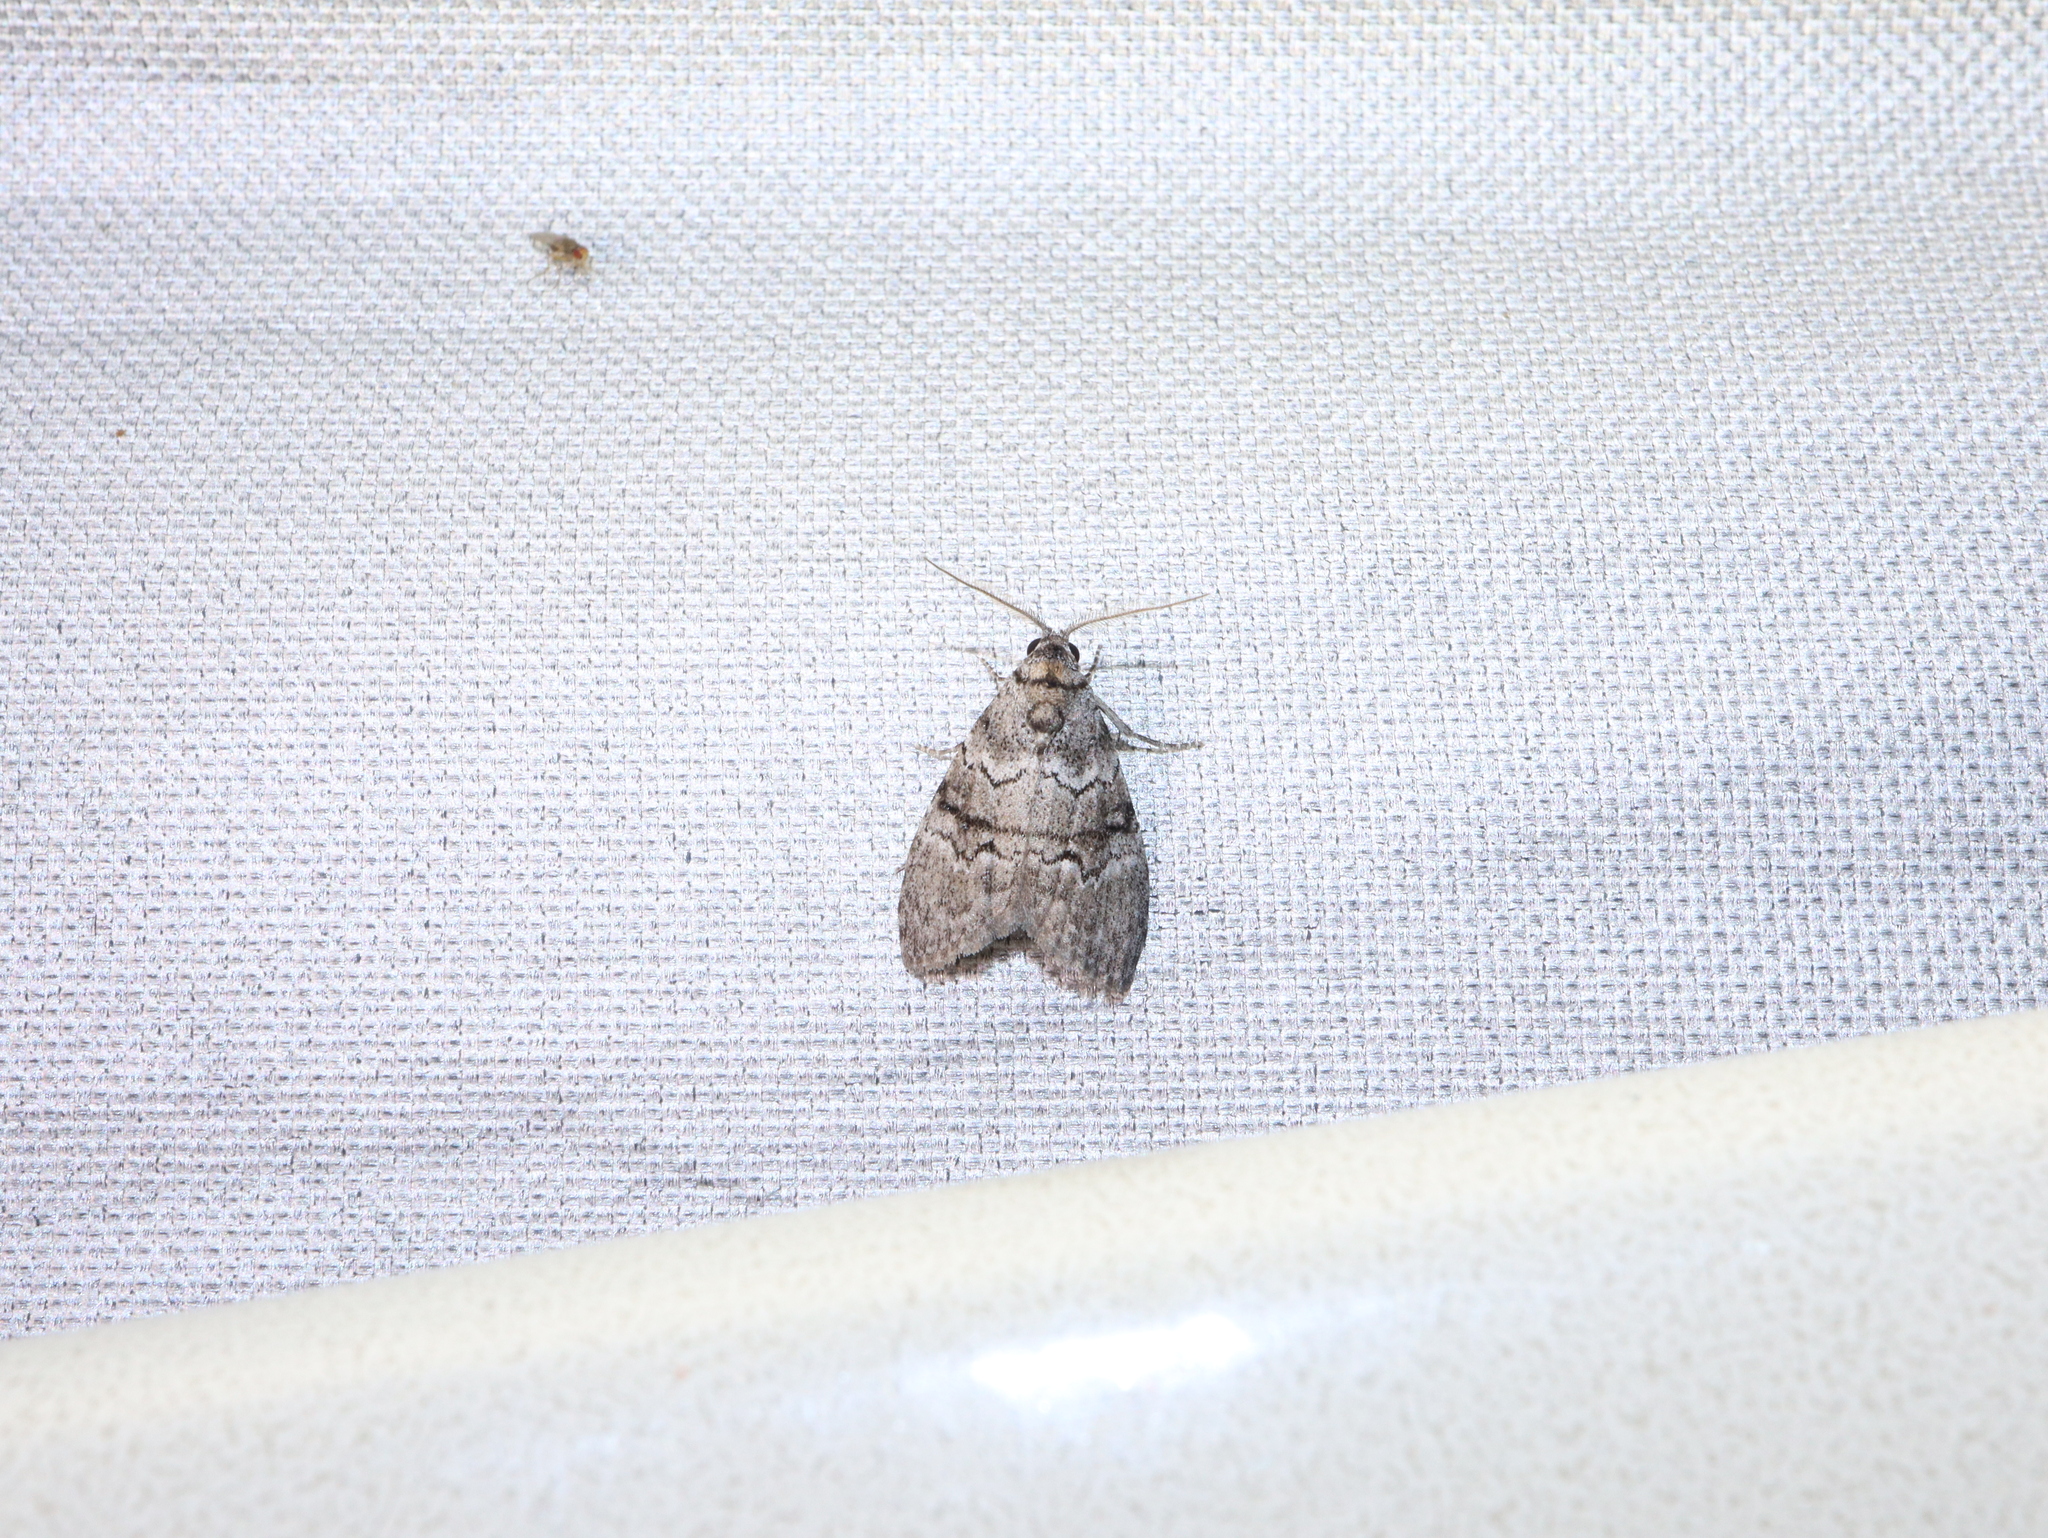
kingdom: Animalia
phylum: Arthropoda
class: Insecta
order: Lepidoptera
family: Nolidae
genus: Uraba
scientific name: Uraba lugens
